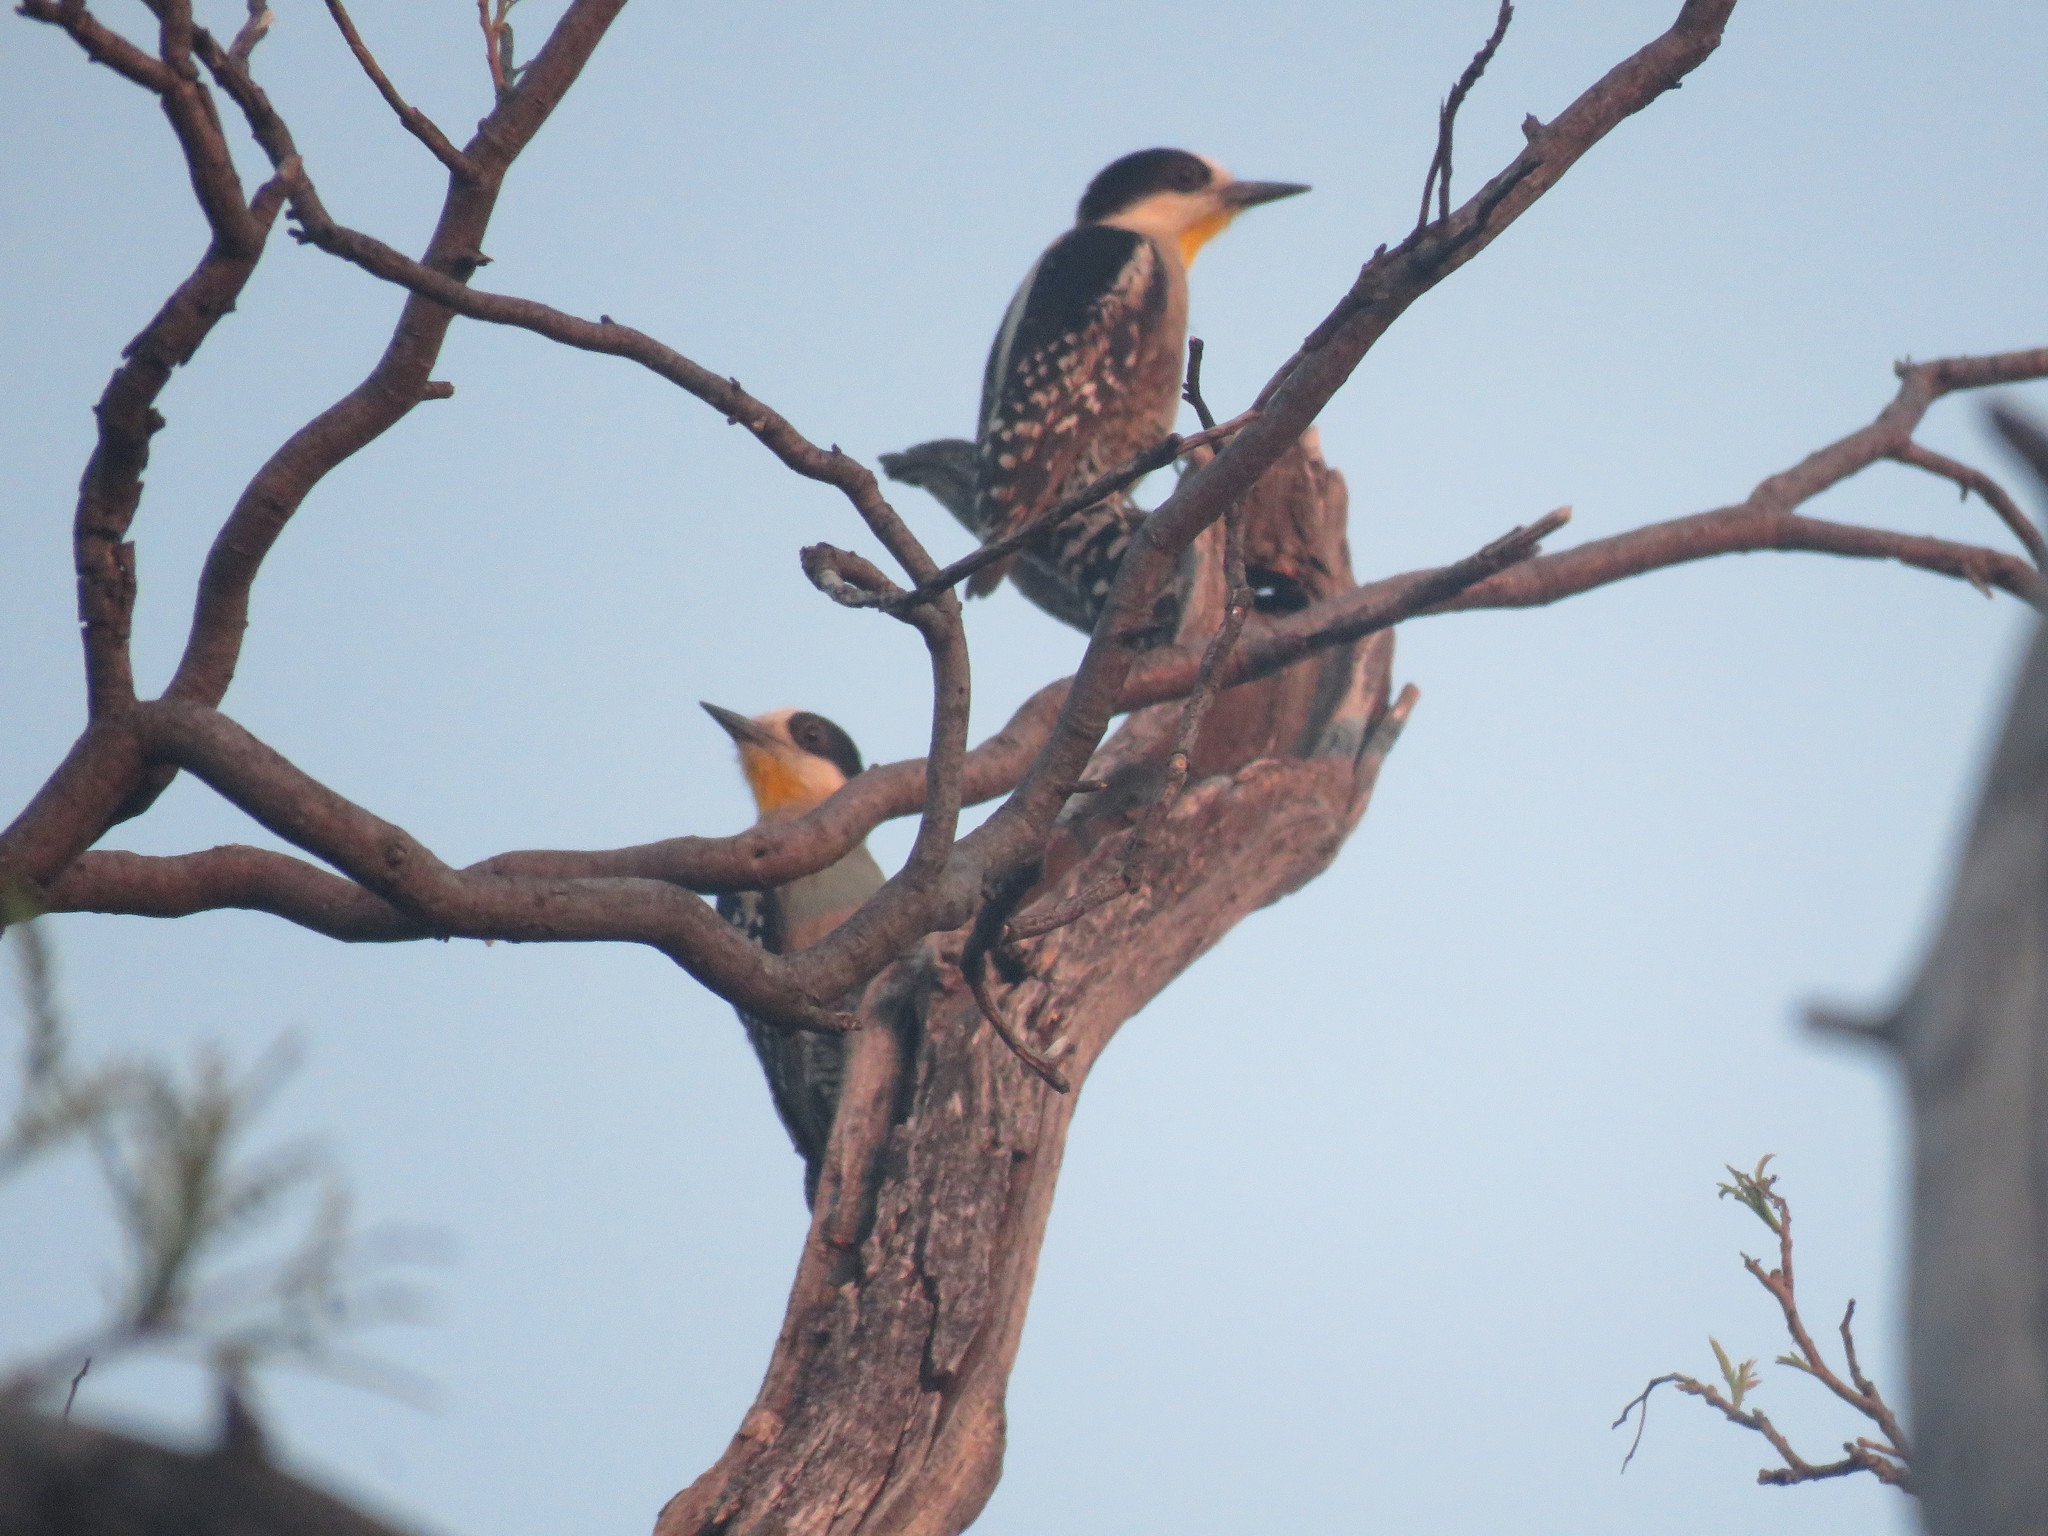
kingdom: Animalia
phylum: Chordata
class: Aves
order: Piciformes
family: Picidae
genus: Melanerpes
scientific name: Melanerpes cactorum
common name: White-fronted woodpecker
